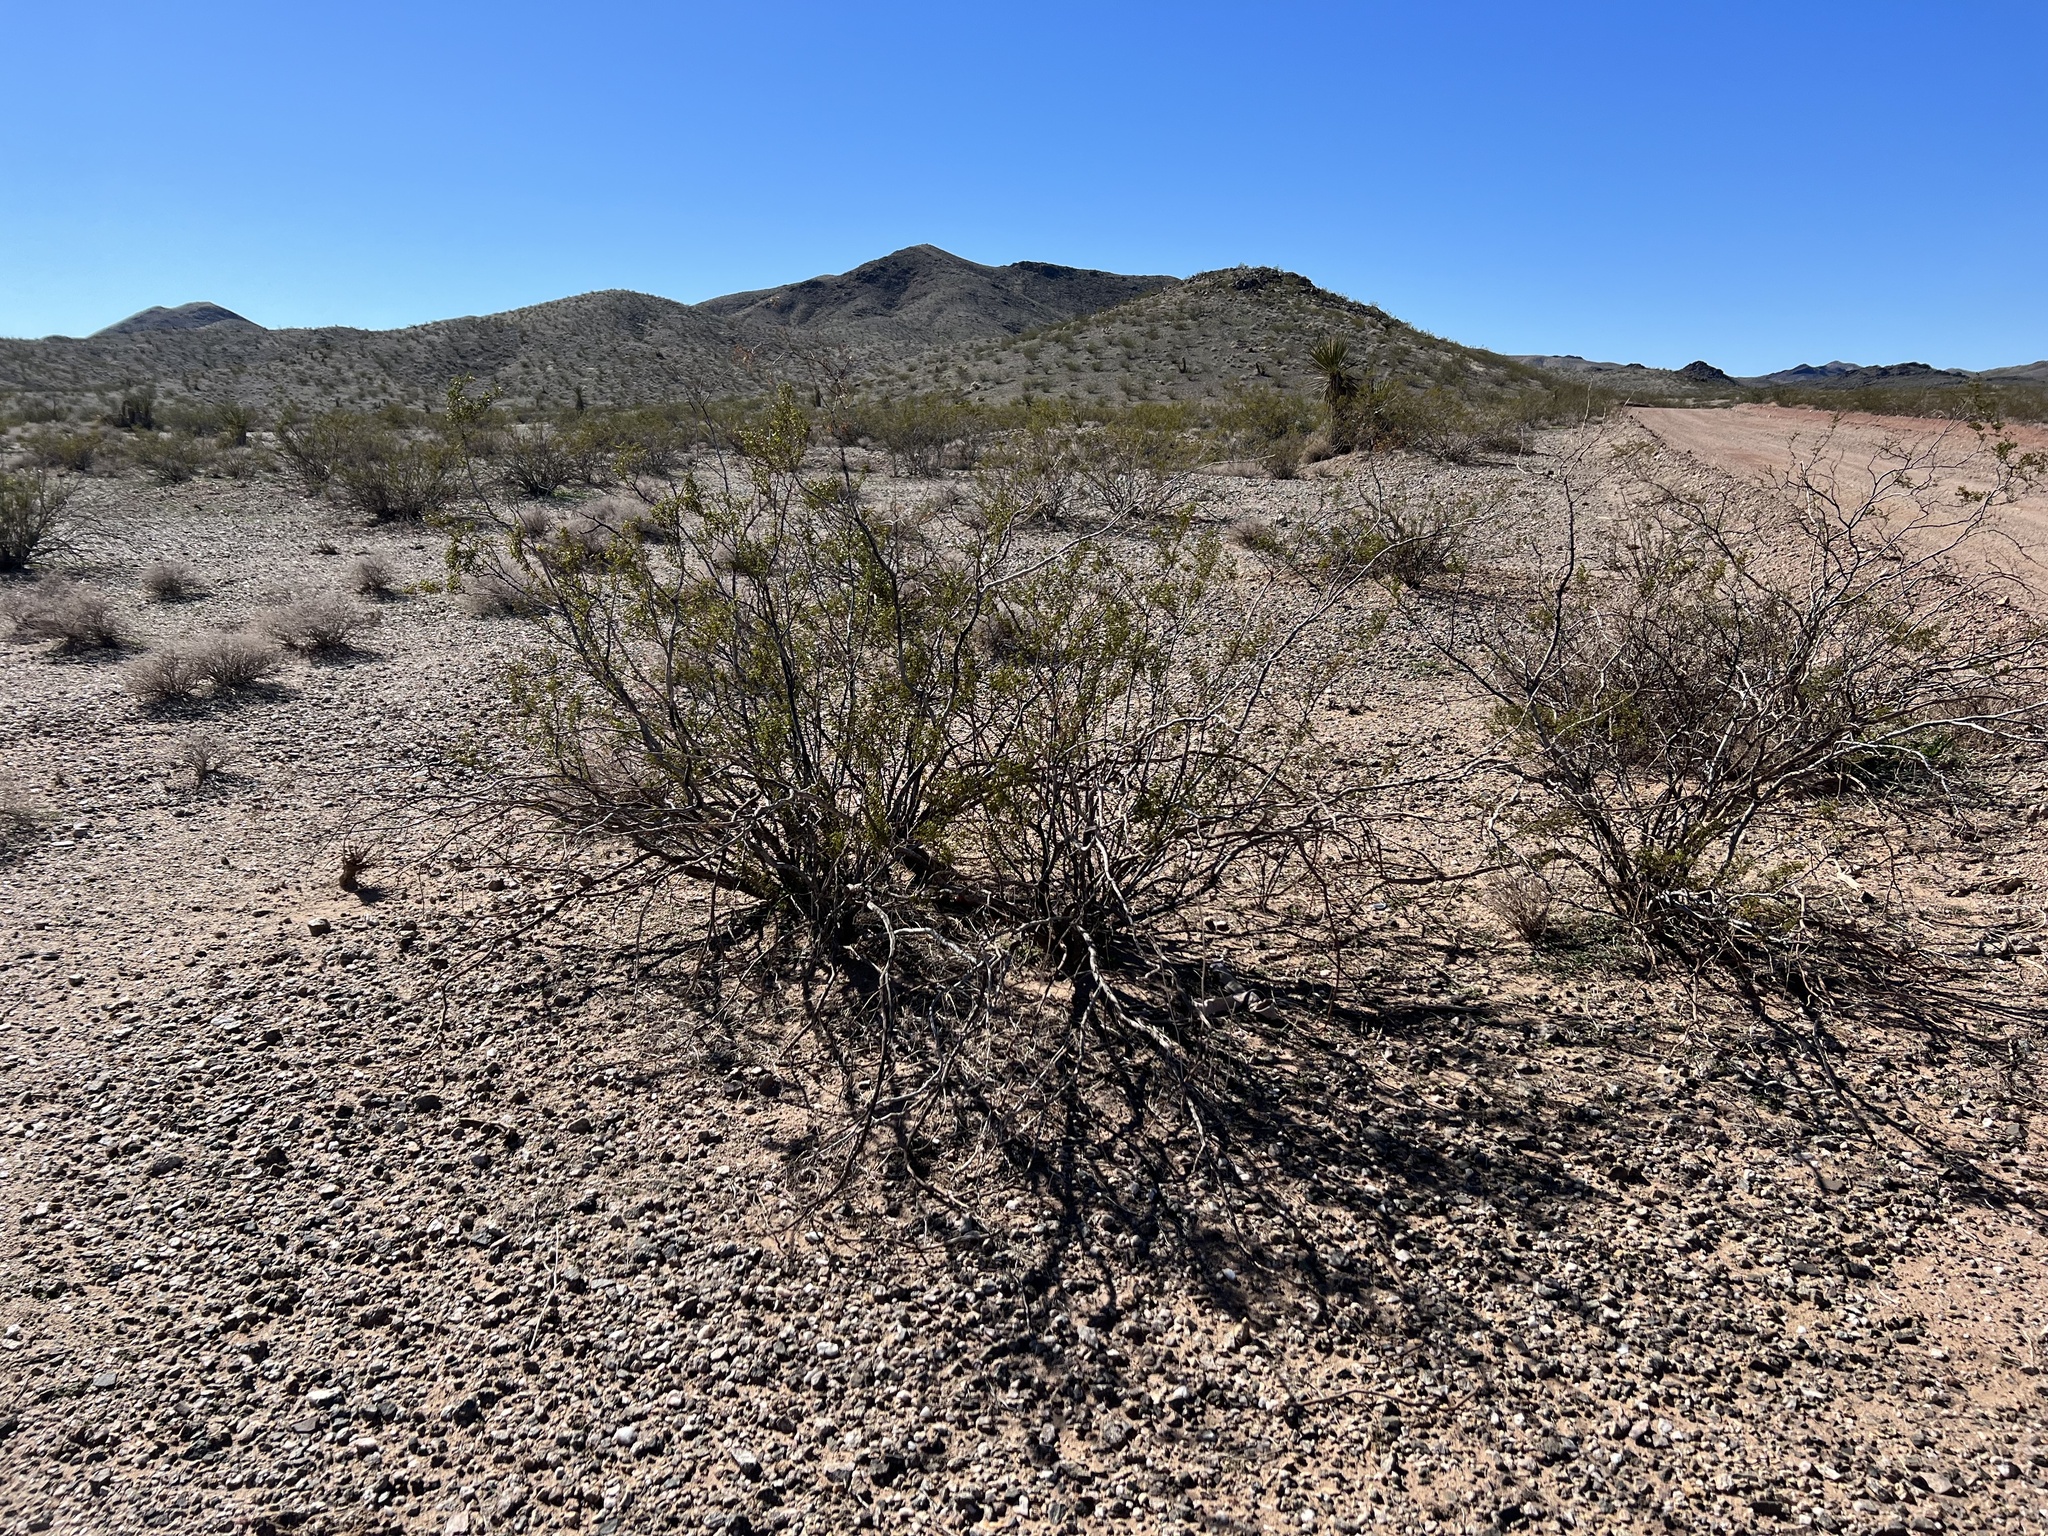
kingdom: Plantae
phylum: Tracheophyta
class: Magnoliopsida
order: Zygophyllales
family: Zygophyllaceae
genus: Larrea
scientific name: Larrea tridentata
